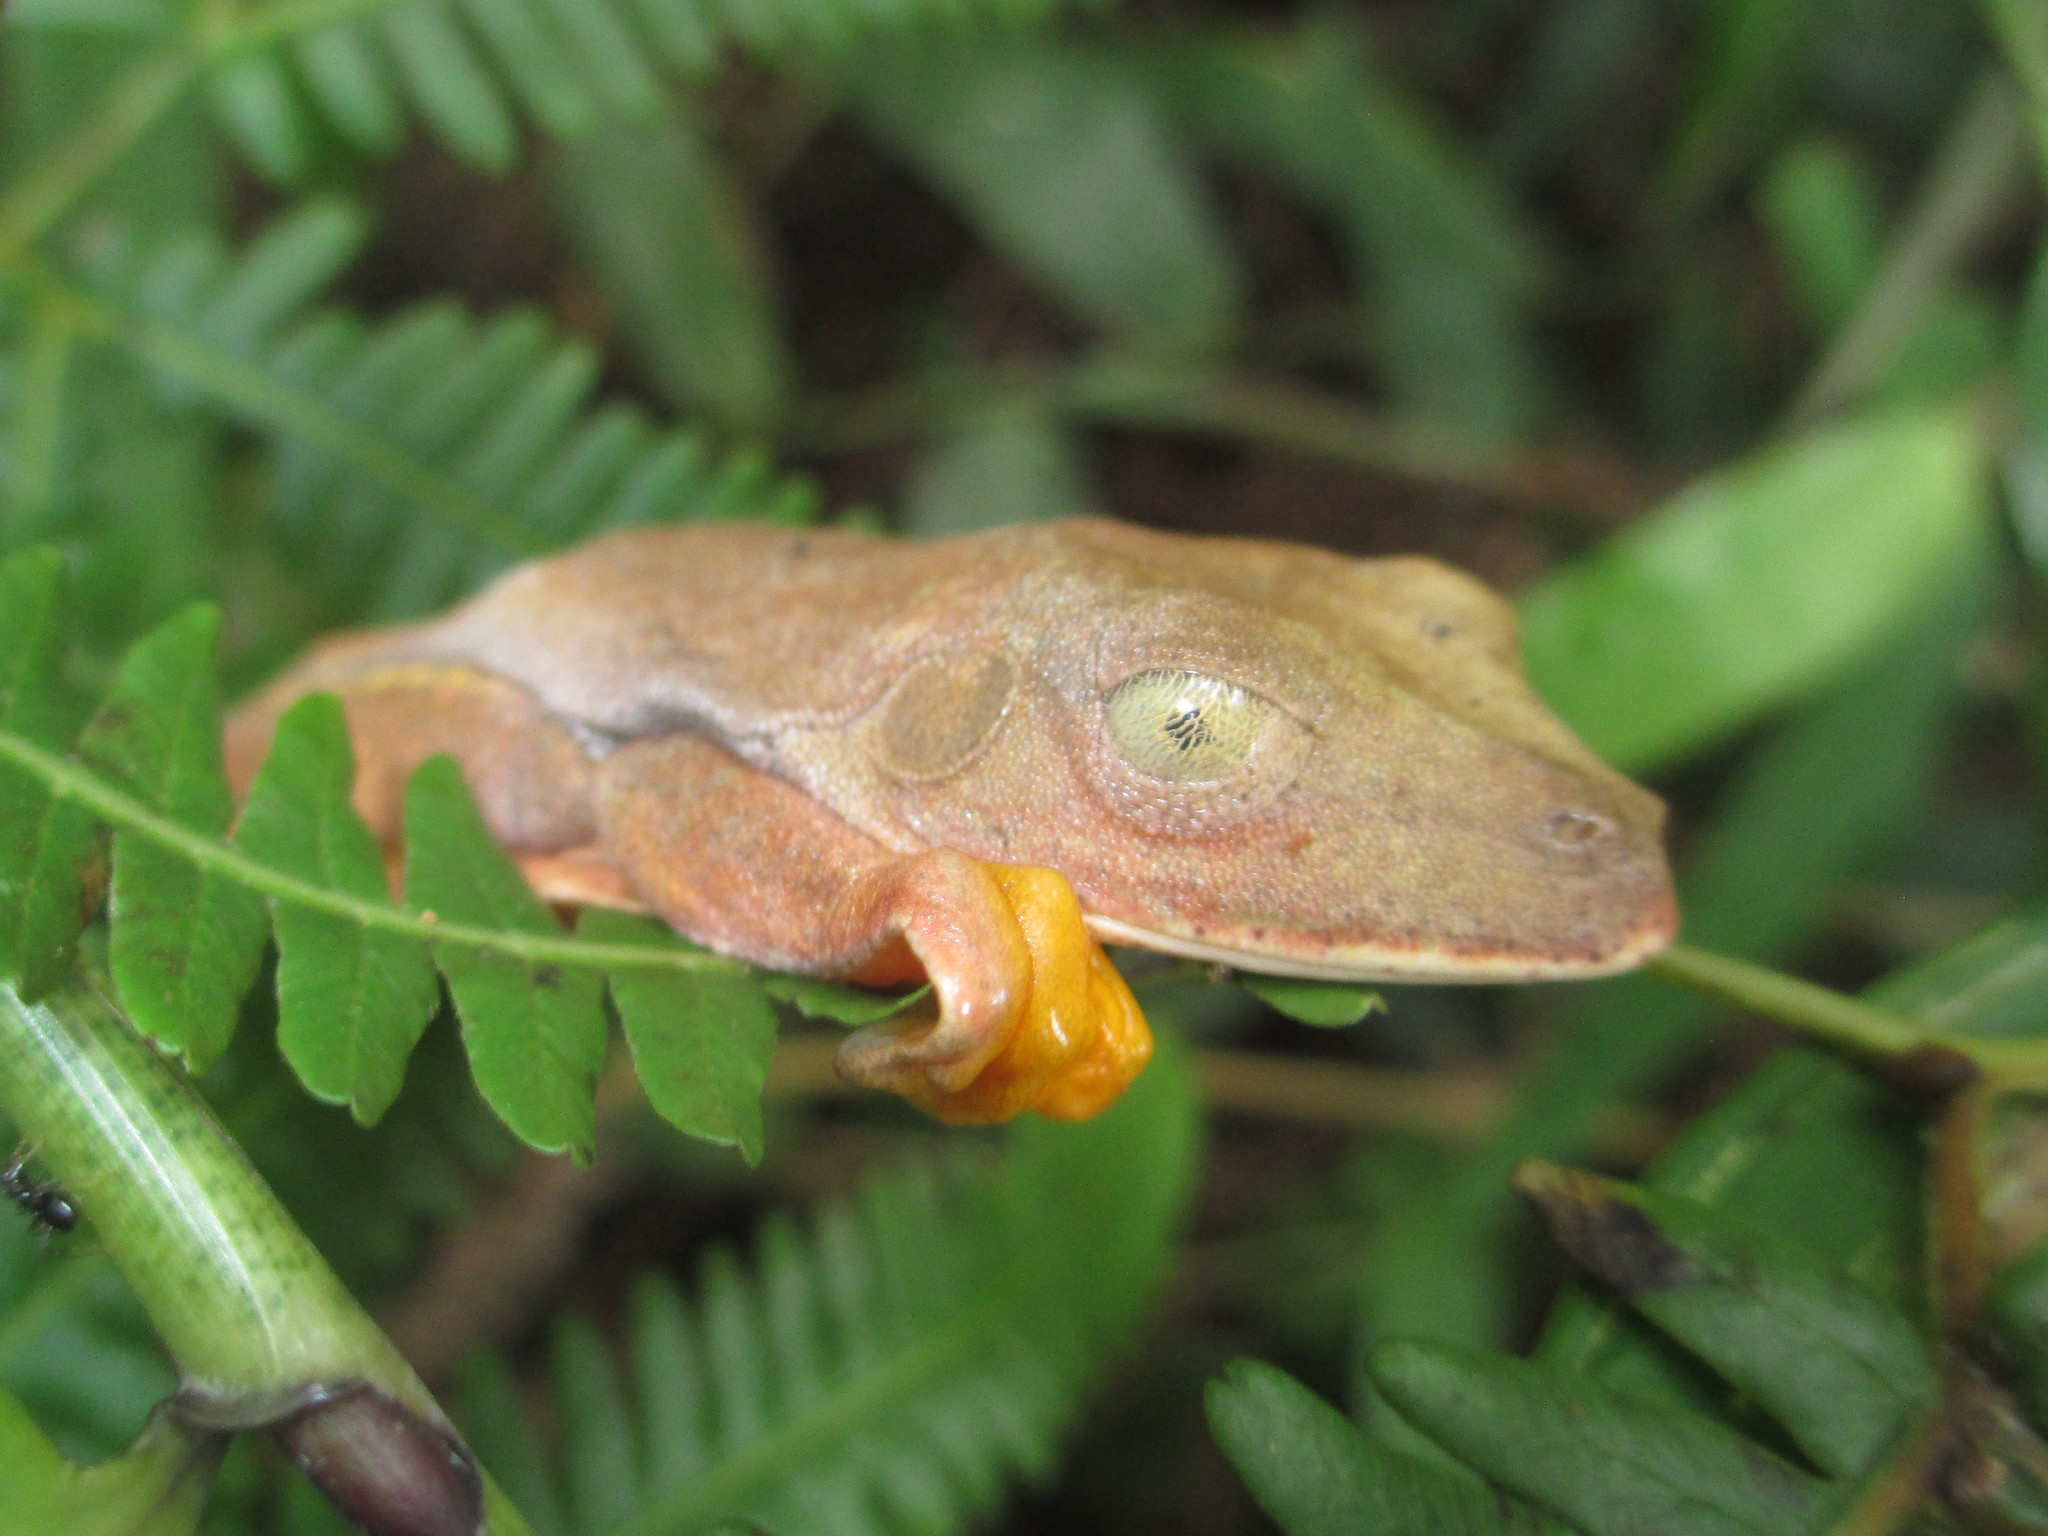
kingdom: Animalia
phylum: Chordata
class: Amphibia
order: Anura
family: Hylidae
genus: Boana
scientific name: Boana semilineata
